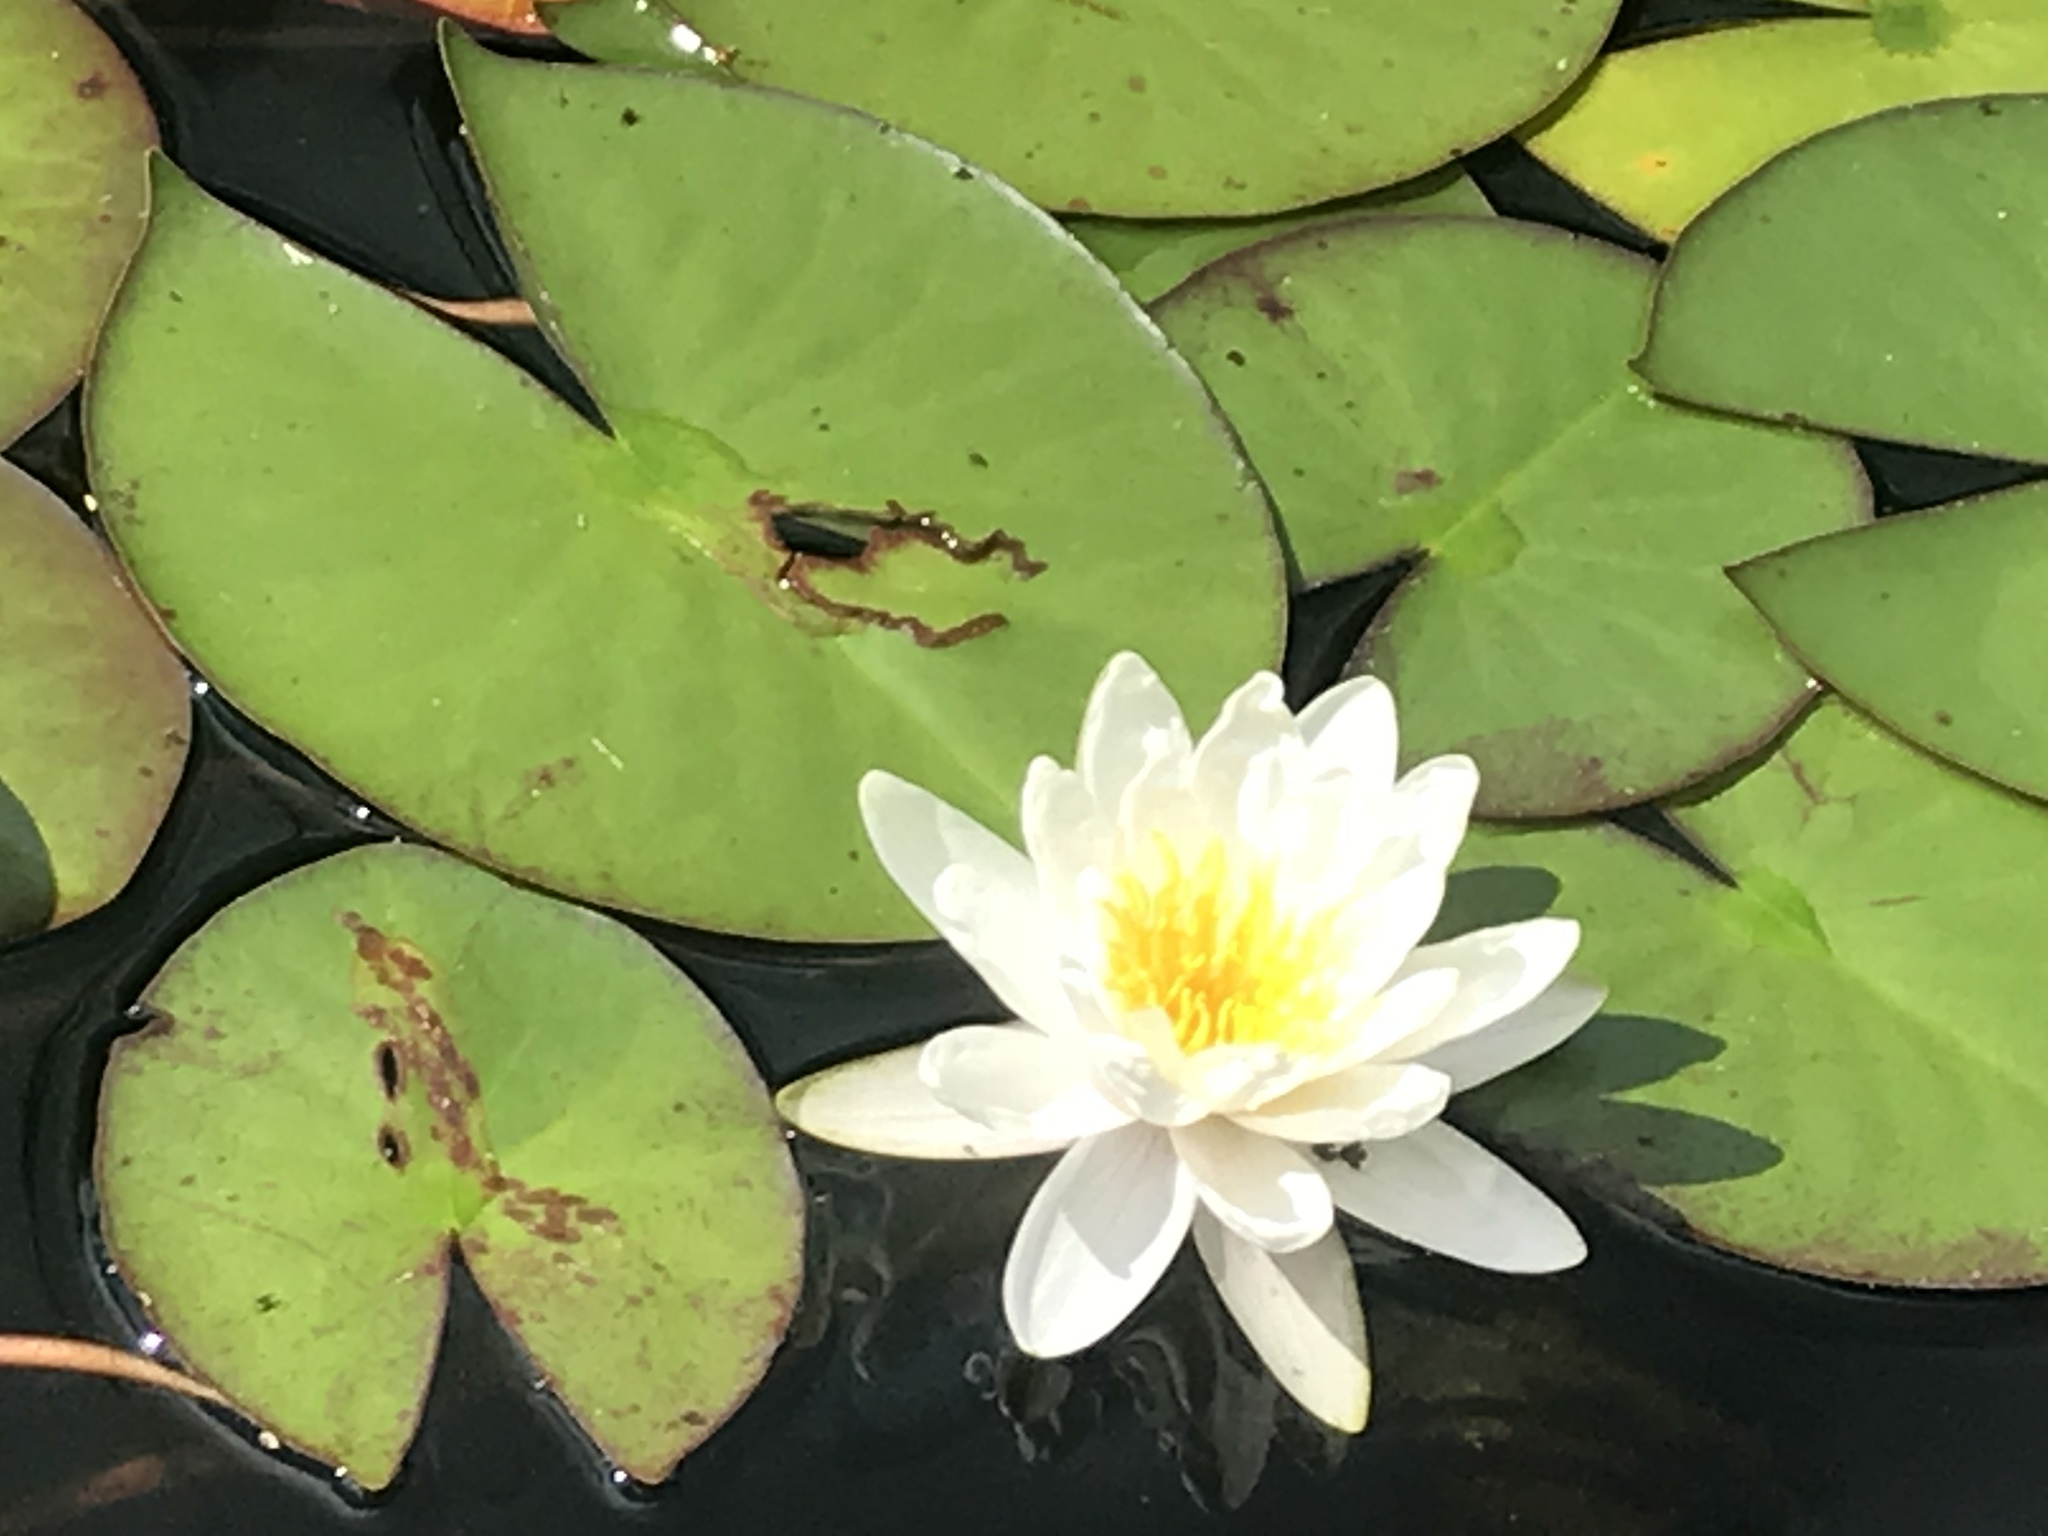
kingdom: Plantae
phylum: Tracheophyta
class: Magnoliopsida
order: Nymphaeales
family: Nymphaeaceae
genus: Nymphaea
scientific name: Nymphaea odorata
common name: Fragrant water-lily
